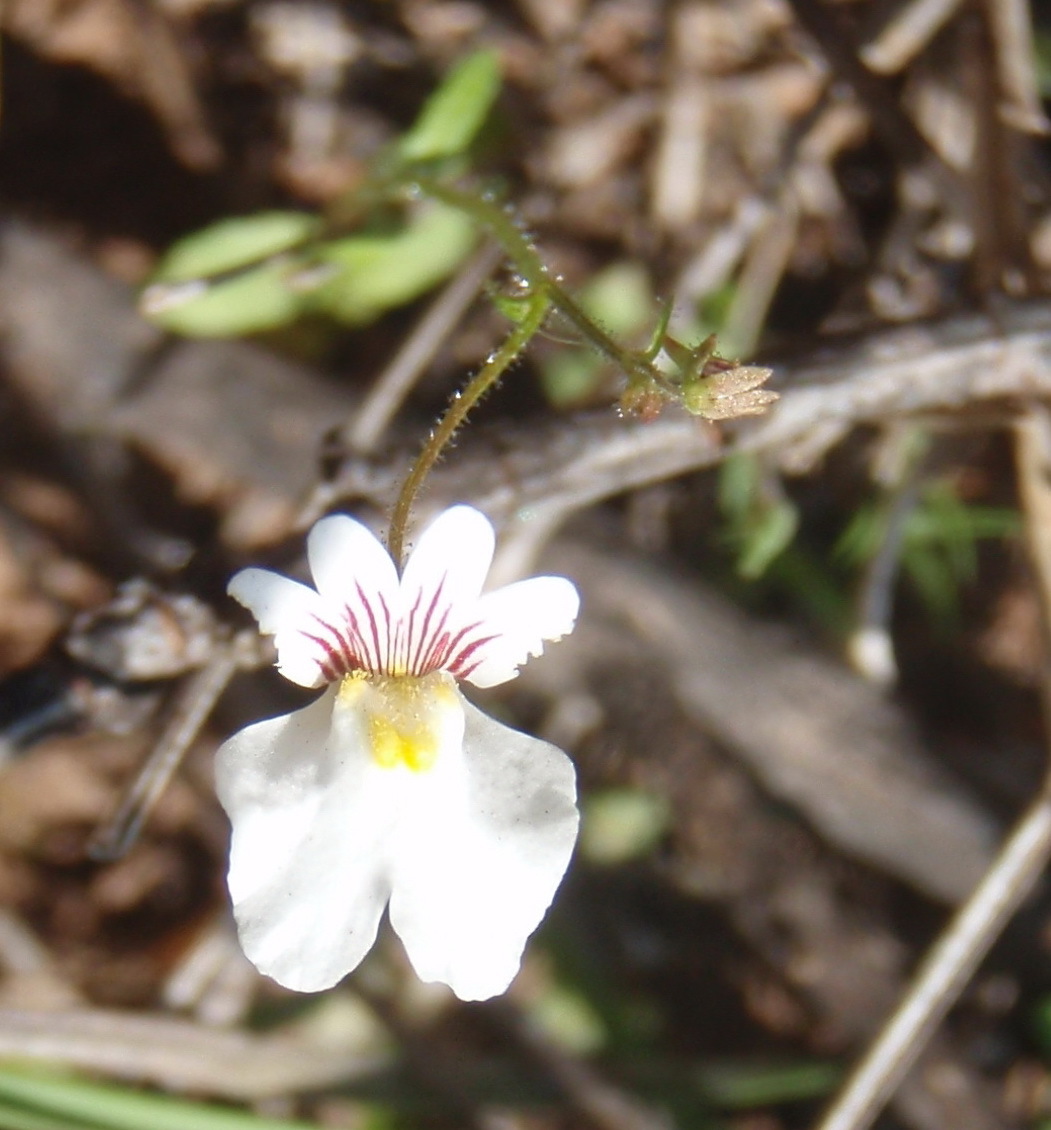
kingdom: Plantae
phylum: Tracheophyta
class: Magnoliopsida
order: Lamiales
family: Scrophulariaceae
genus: Nemesia
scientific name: Nemesia bicornis
